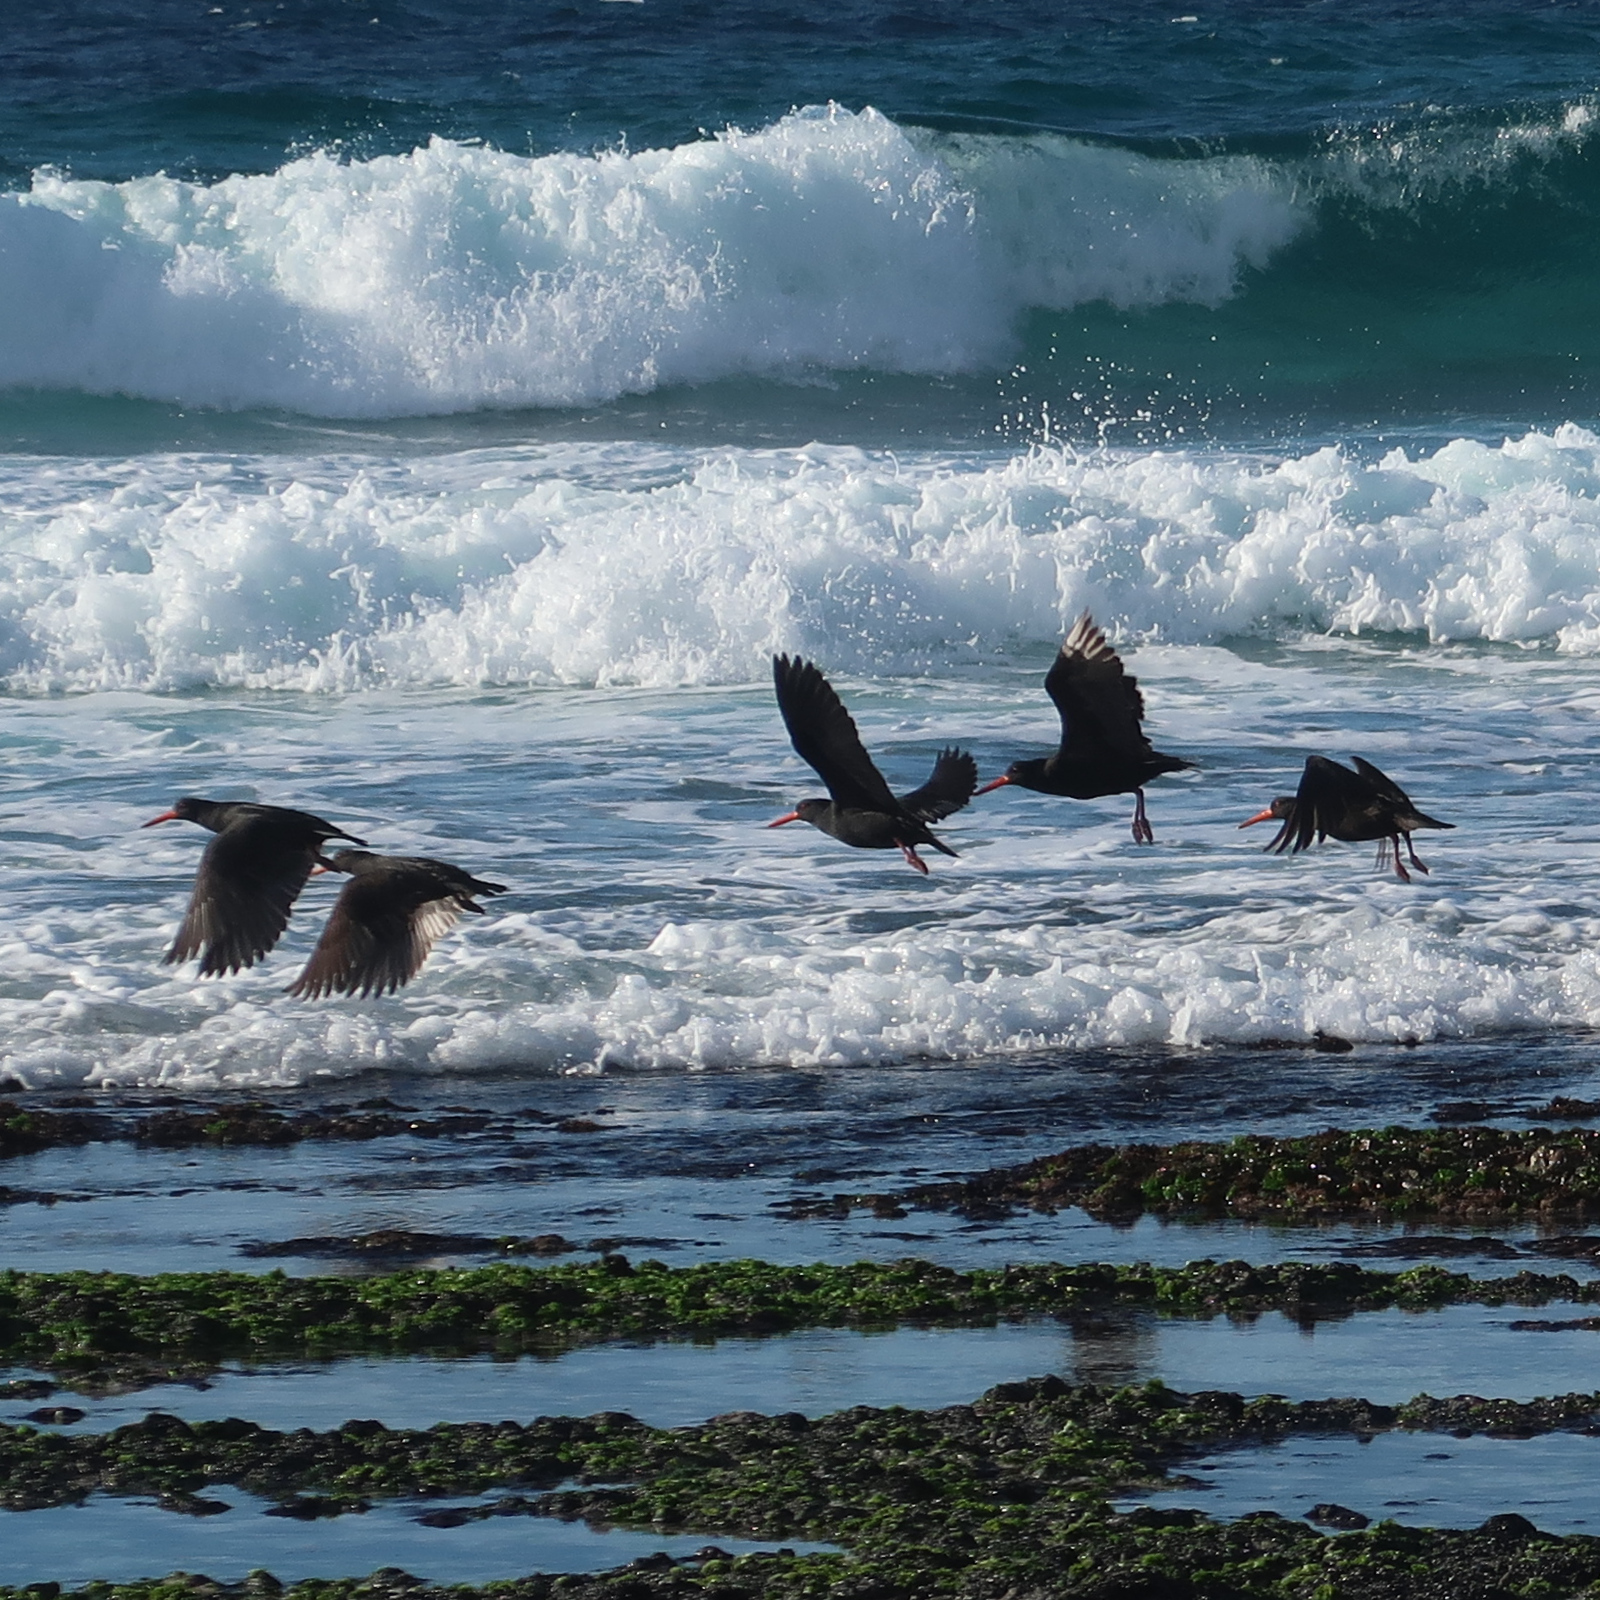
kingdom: Animalia
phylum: Chordata
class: Aves
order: Charadriiformes
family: Haematopodidae
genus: Haematopus
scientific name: Haematopus fuliginosus
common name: Sooty oystercatcher
